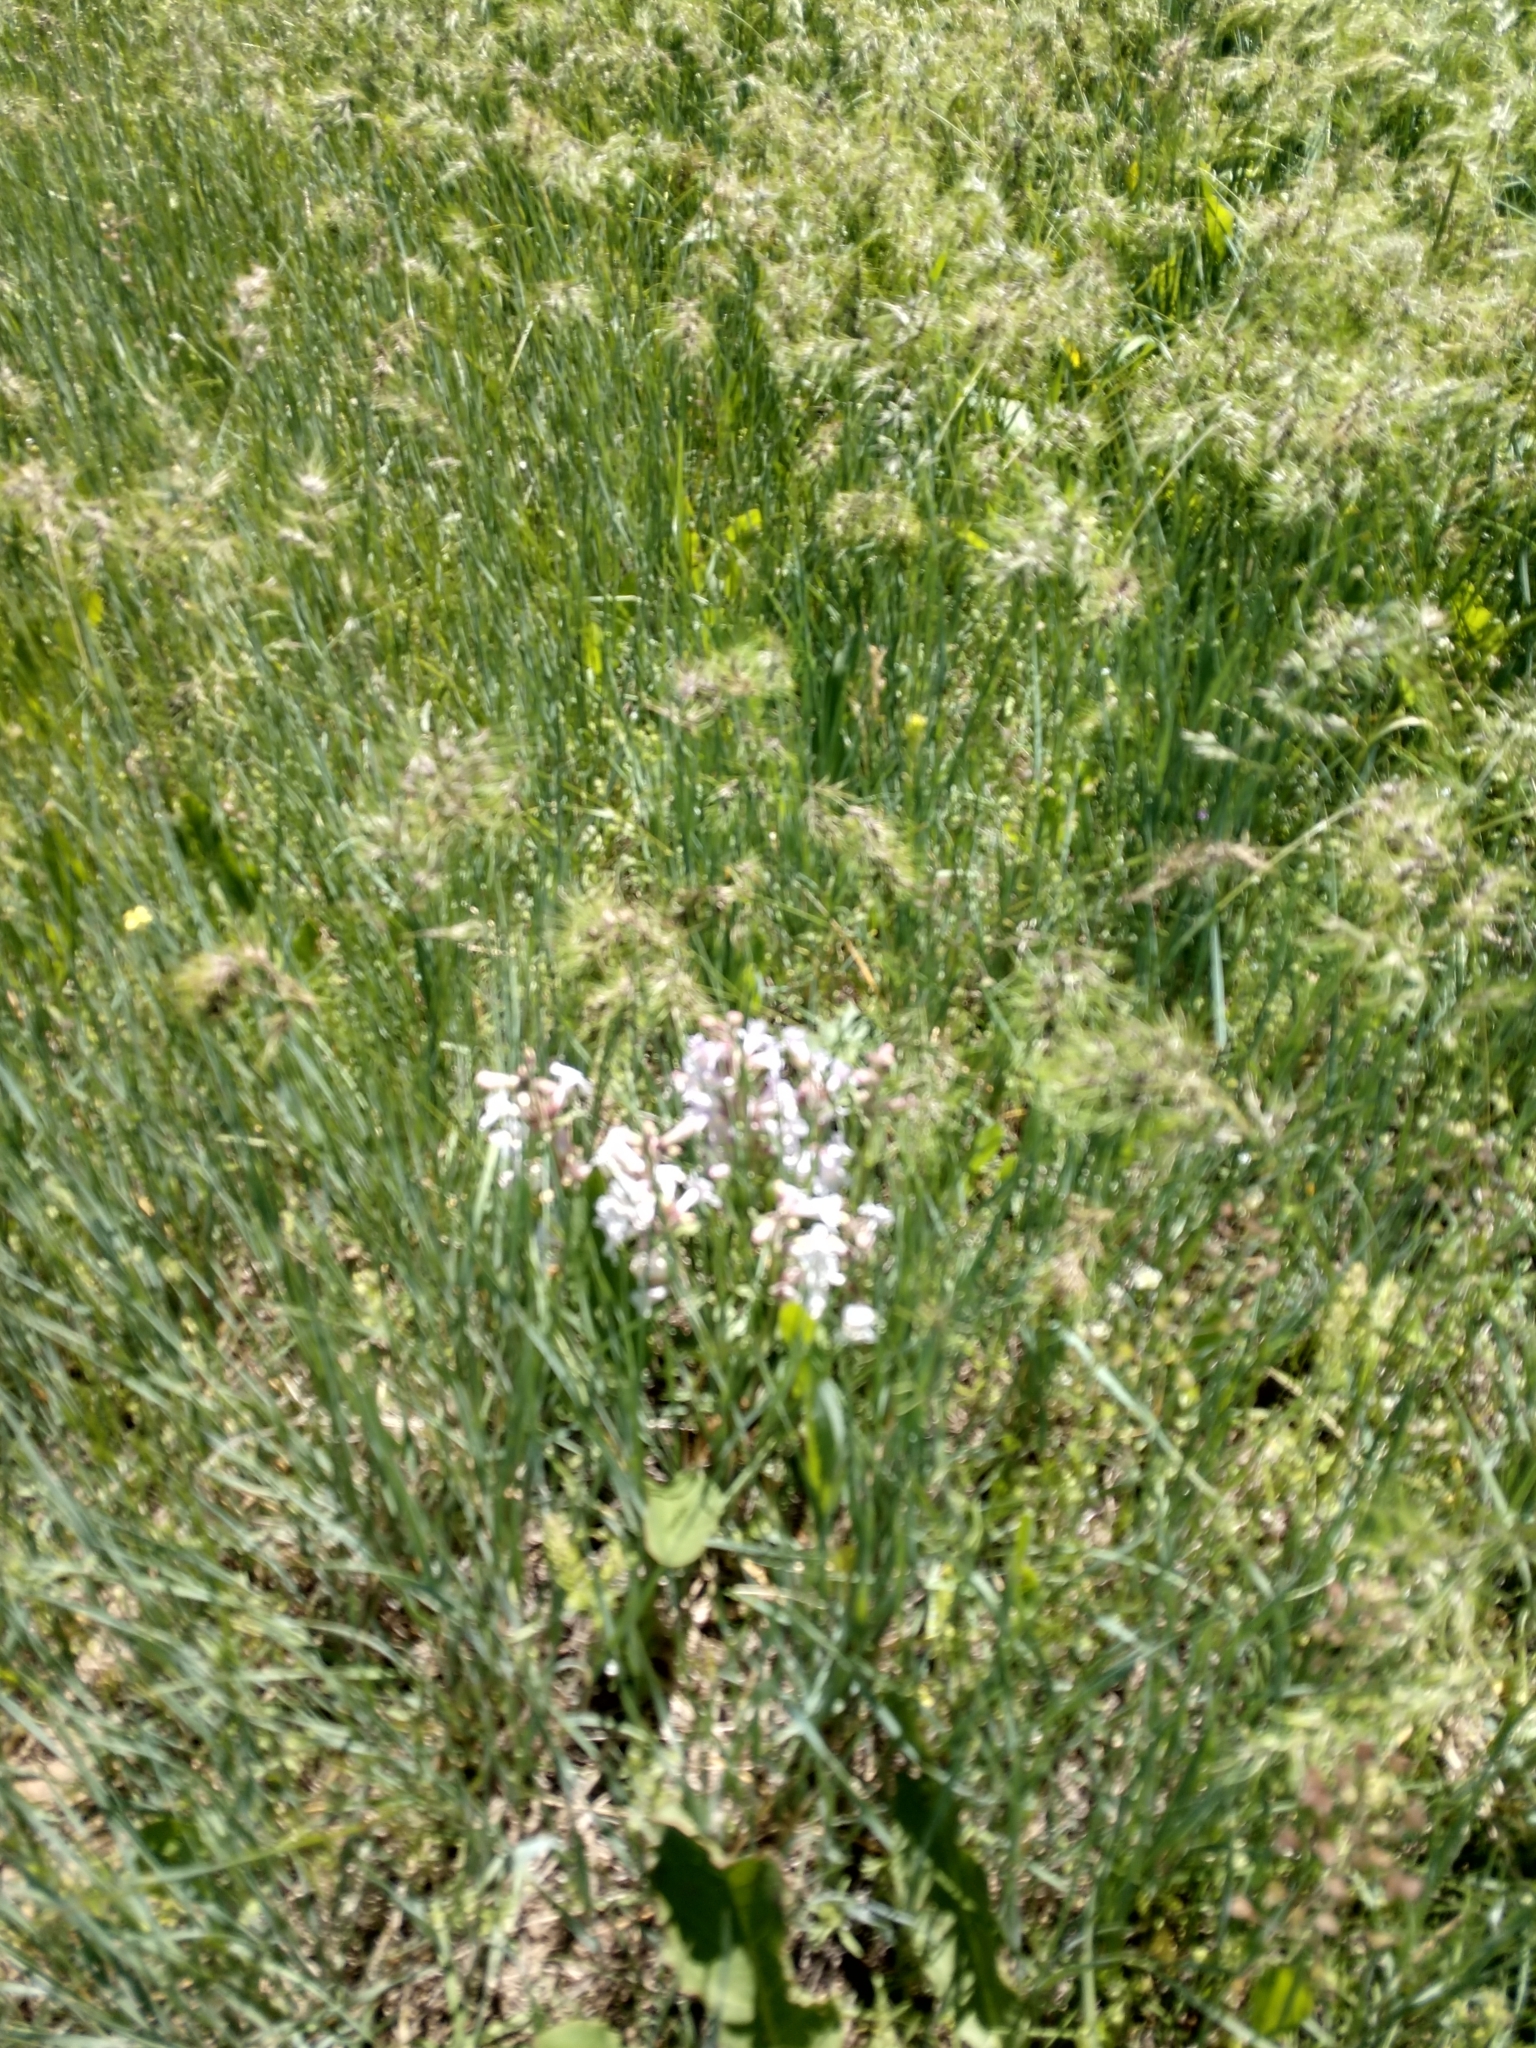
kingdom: Plantae
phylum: Tracheophyta
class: Magnoliopsida
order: Lamiales
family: Plantaginaceae
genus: Penstemon
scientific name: Penstemon albidus
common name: White beardtongue
